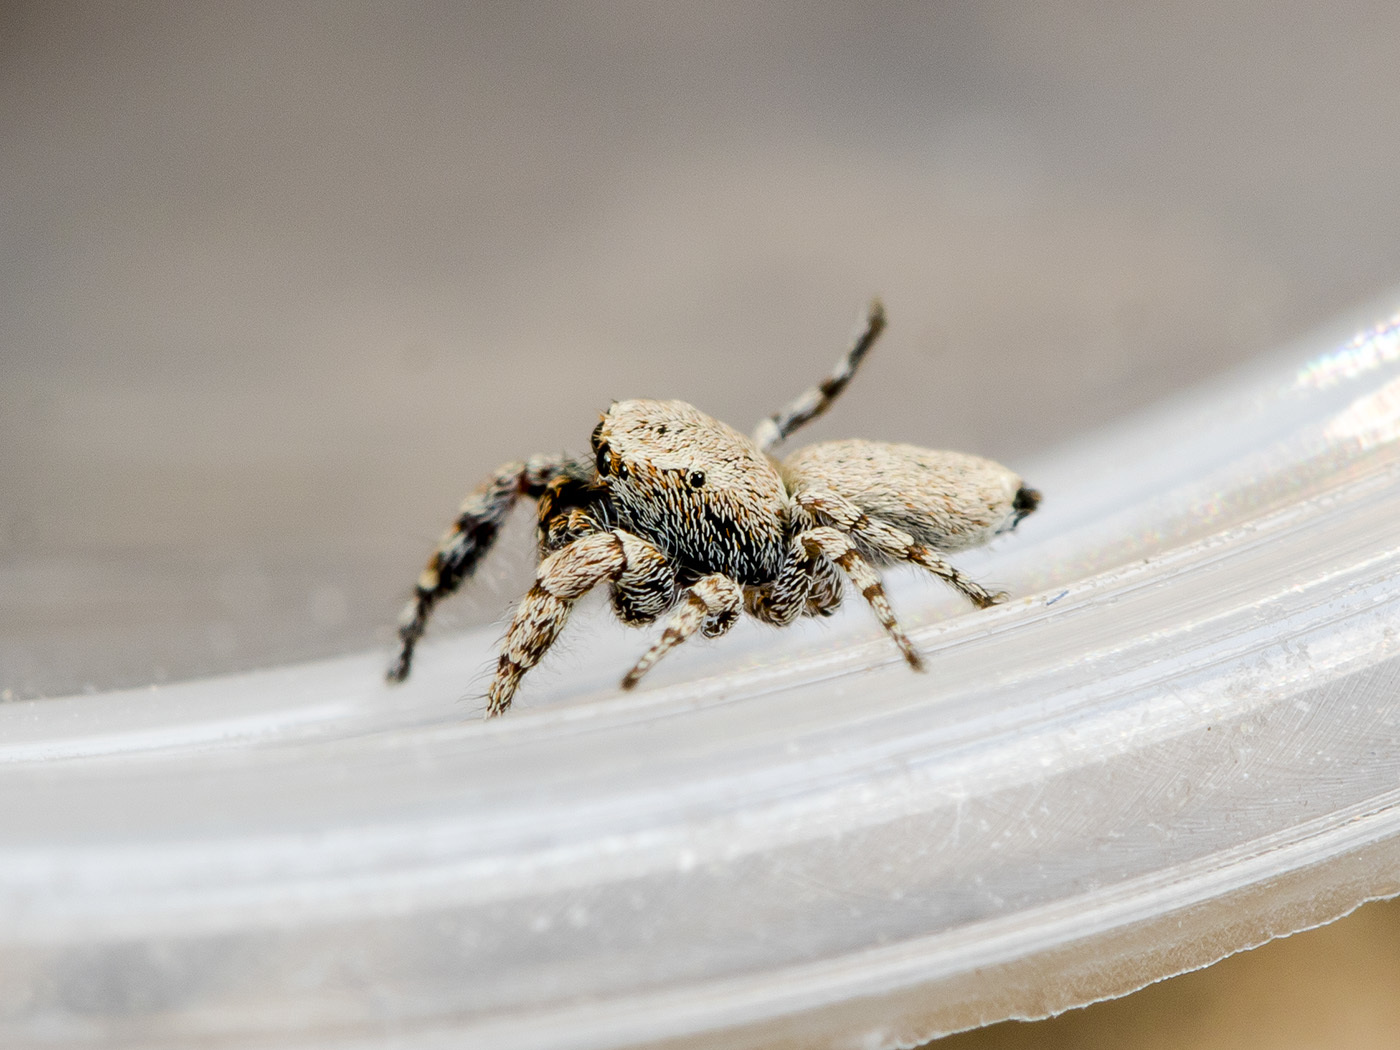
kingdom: Animalia
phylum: Arthropoda
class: Arachnida
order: Araneae
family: Salticidae
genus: Pseudomogrus
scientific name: Pseudomogrus bactrianus
